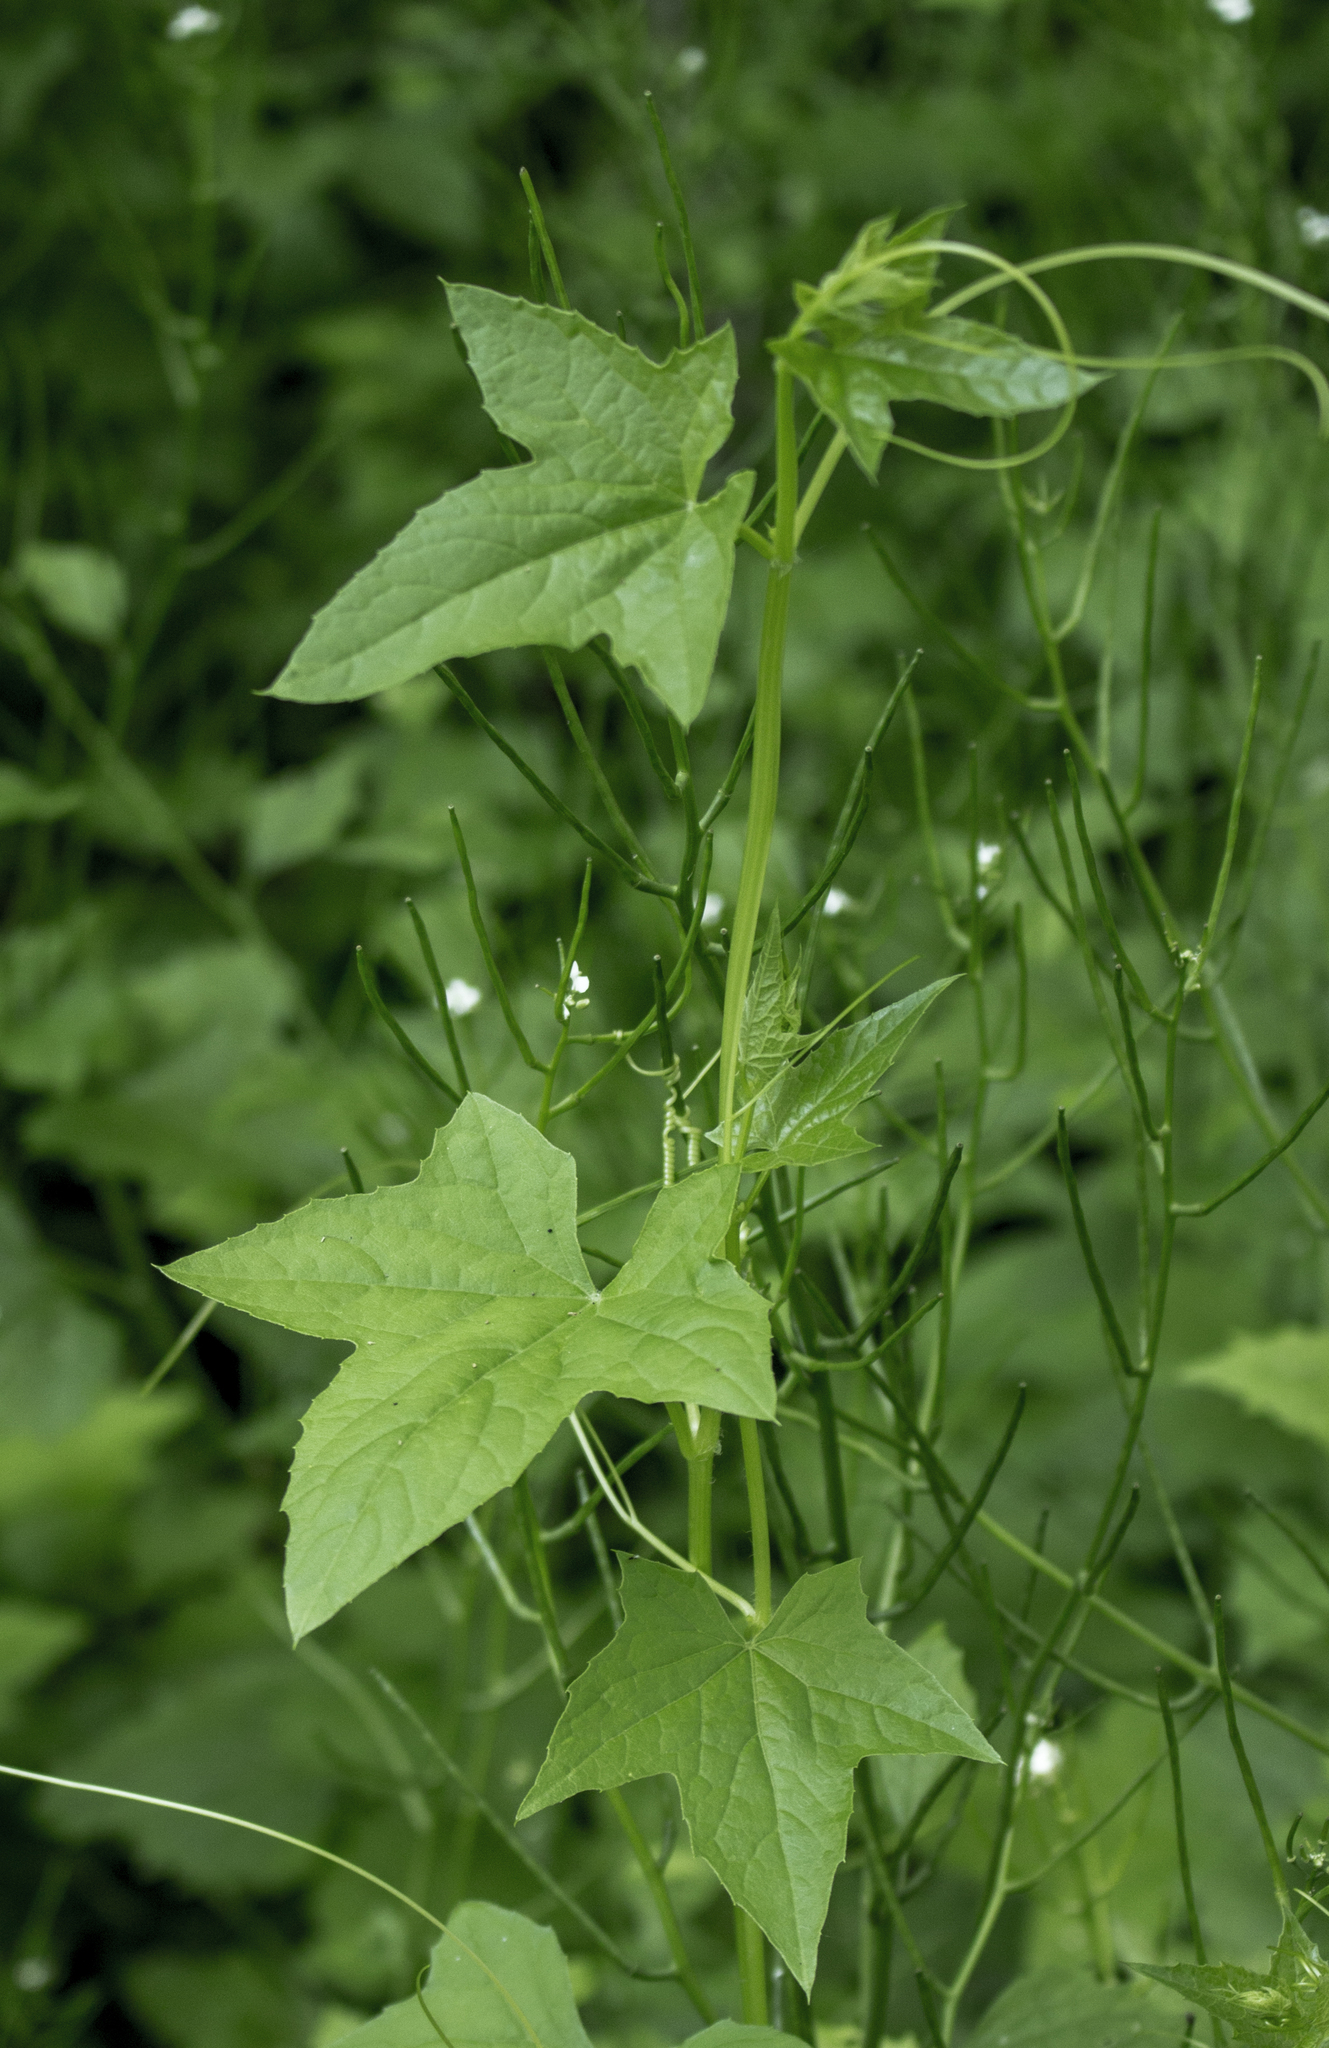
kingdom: Plantae
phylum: Tracheophyta
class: Magnoliopsida
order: Cucurbitales
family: Cucurbitaceae
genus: Echinocystis
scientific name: Echinocystis lobata
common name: Wild cucumber
